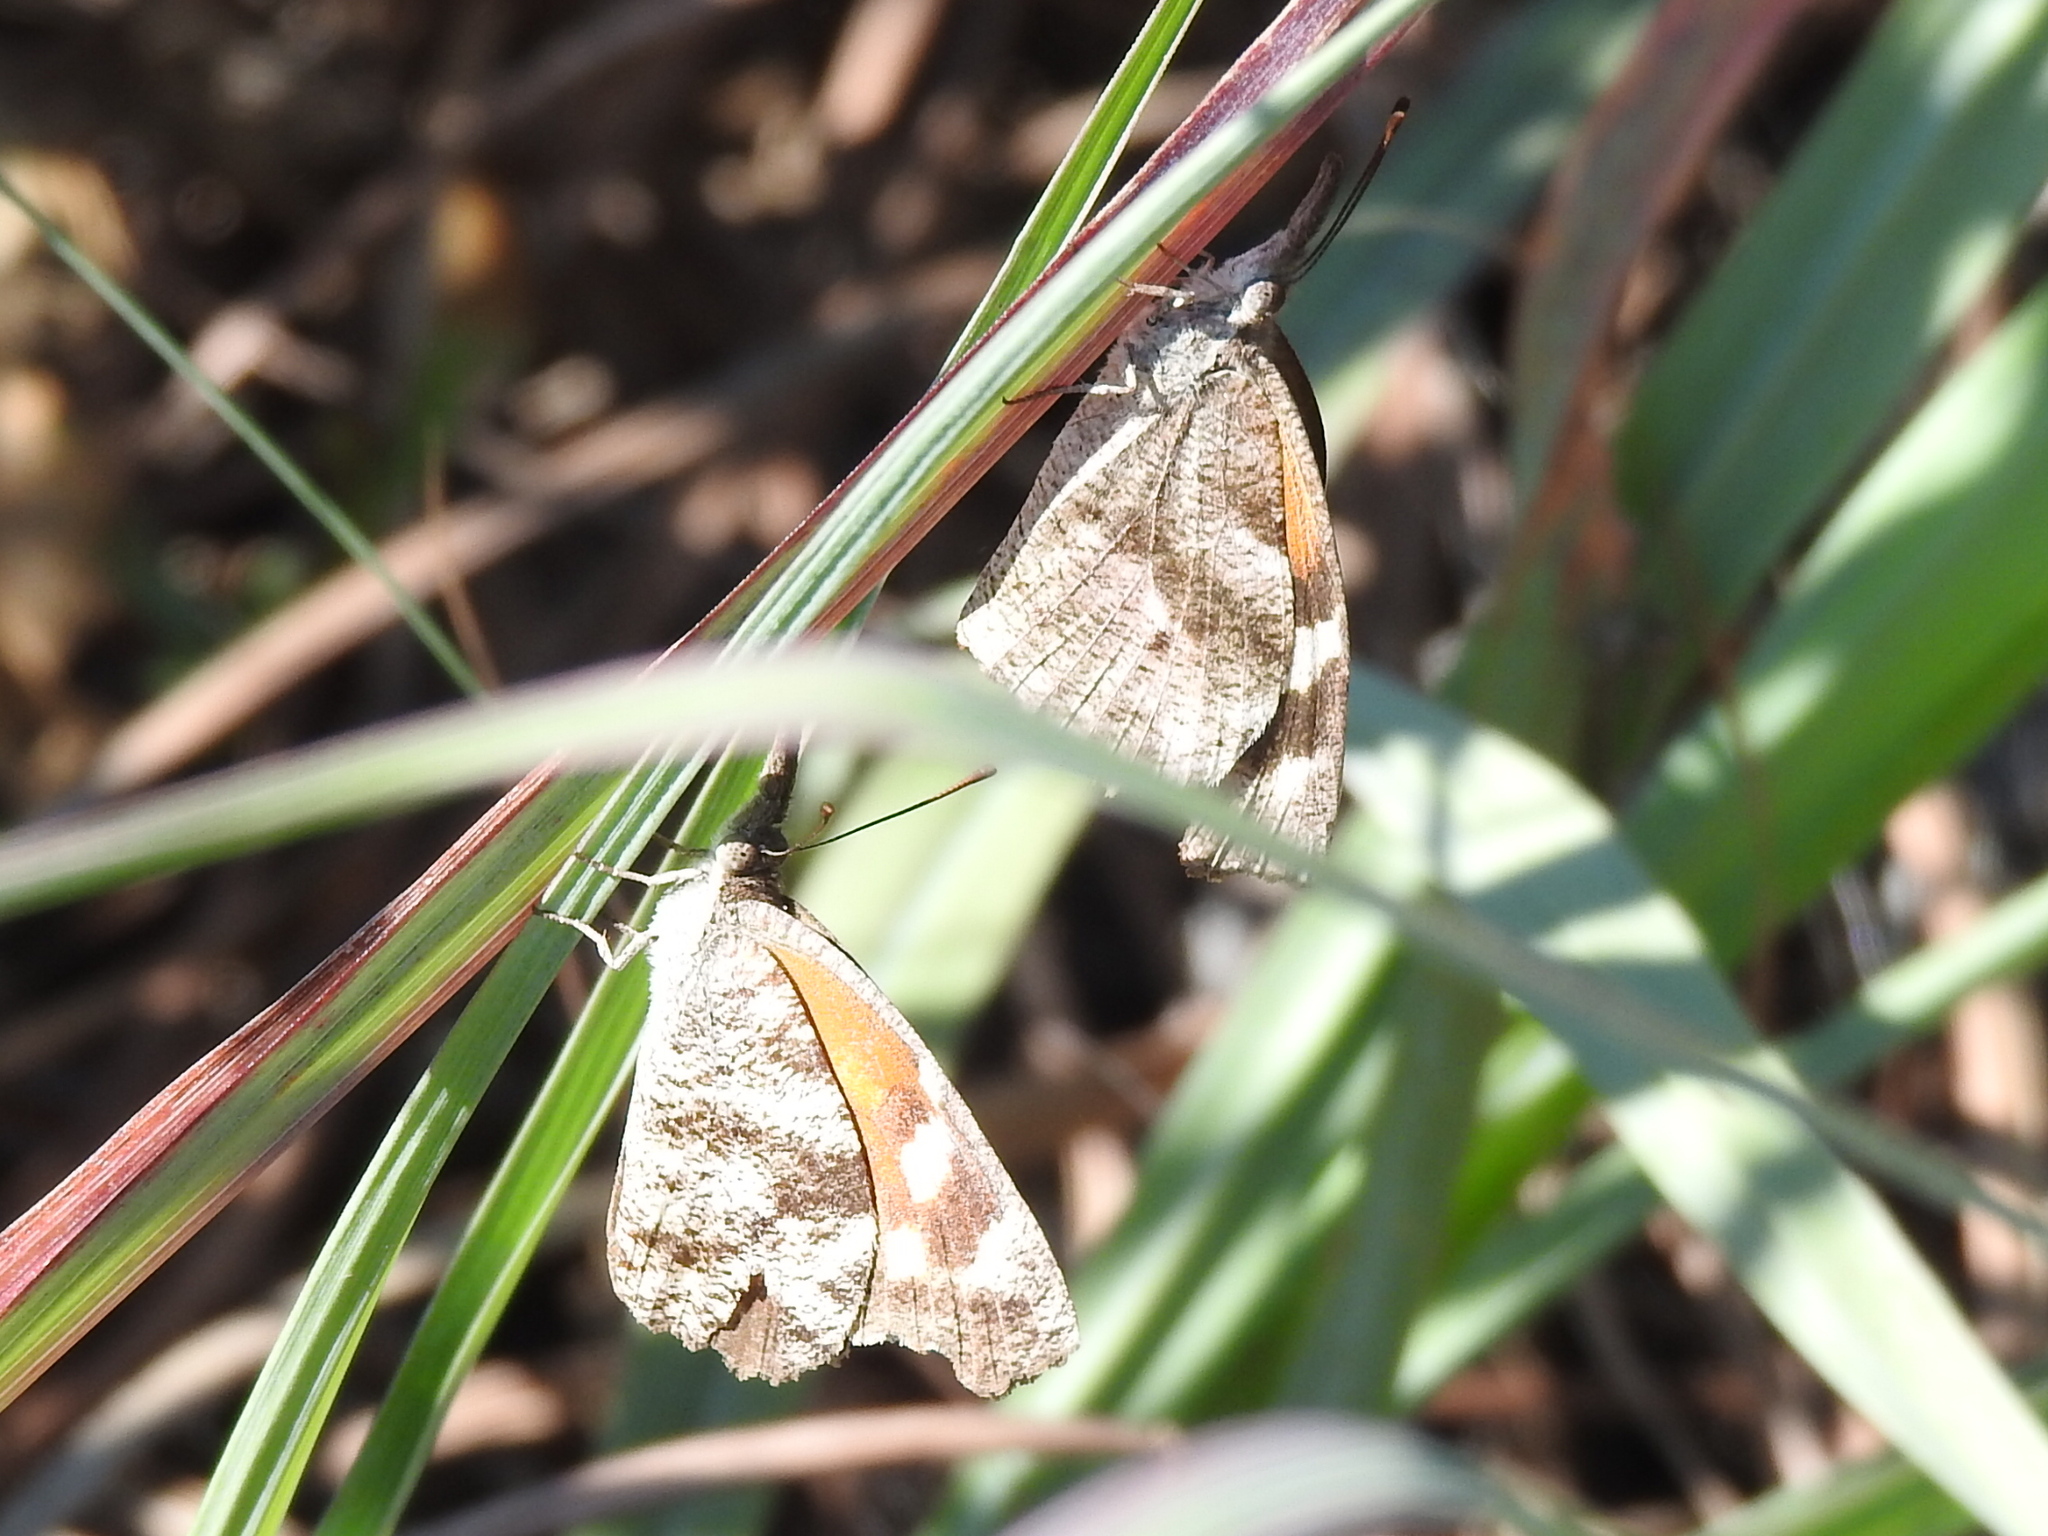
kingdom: Animalia
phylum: Arthropoda
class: Insecta
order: Lepidoptera
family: Nymphalidae
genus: Libytheana
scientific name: Libytheana carinenta
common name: American snout
